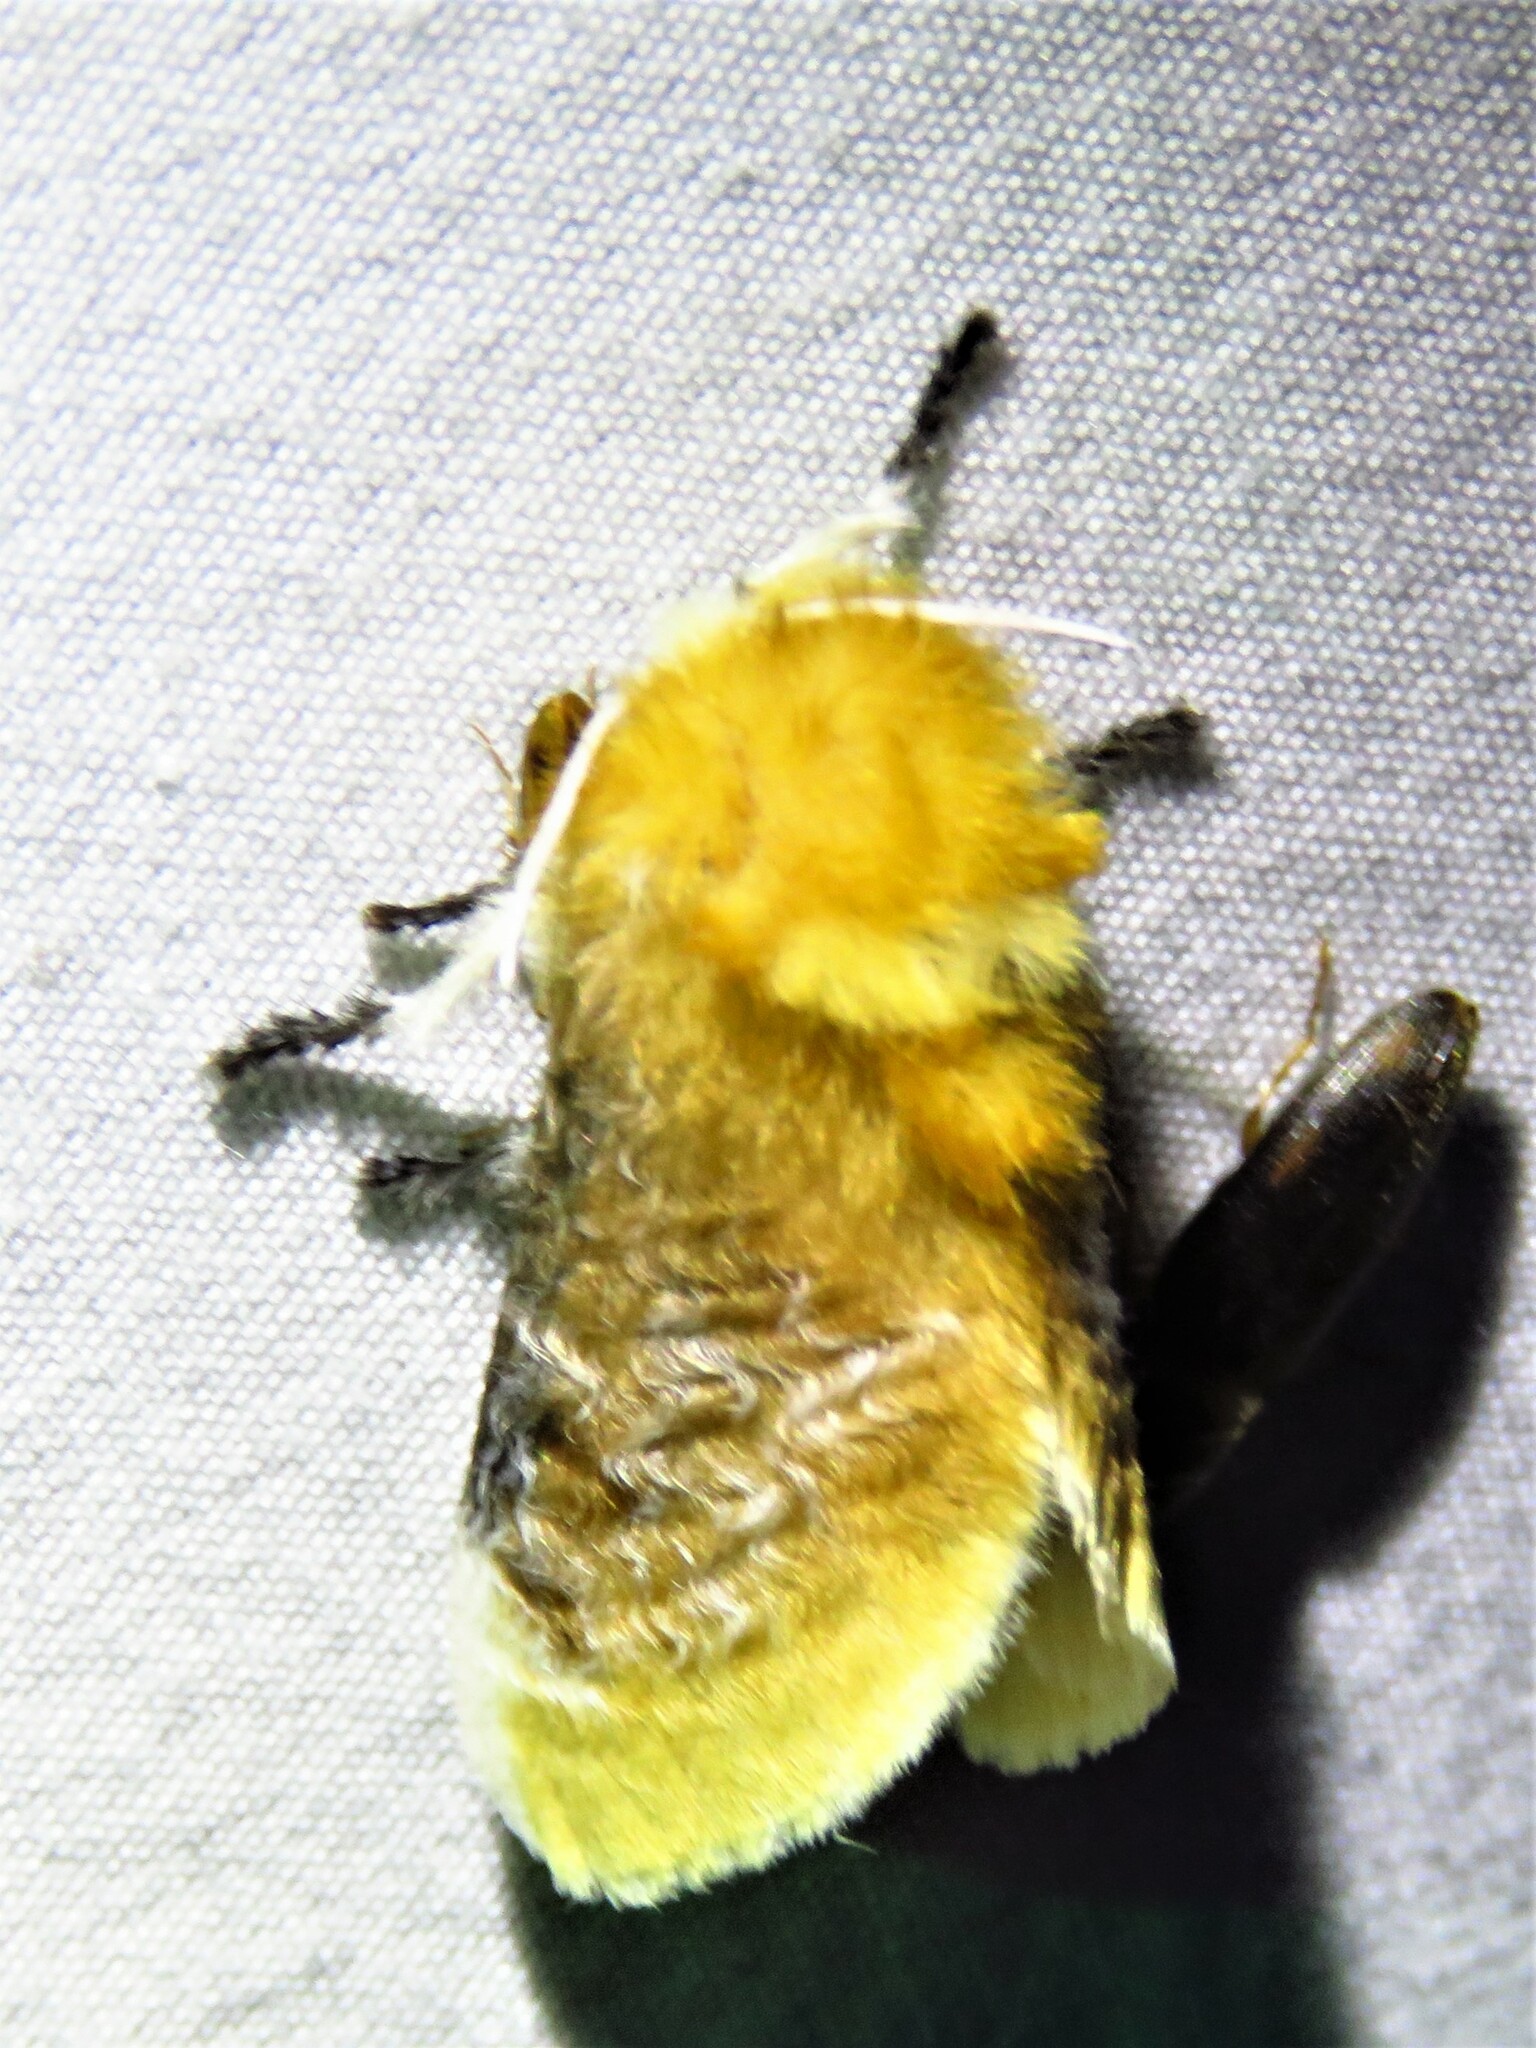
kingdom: Animalia
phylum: Arthropoda
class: Insecta
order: Lepidoptera
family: Megalopygidae
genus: Megalopyge
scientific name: Megalopyge opercularis
